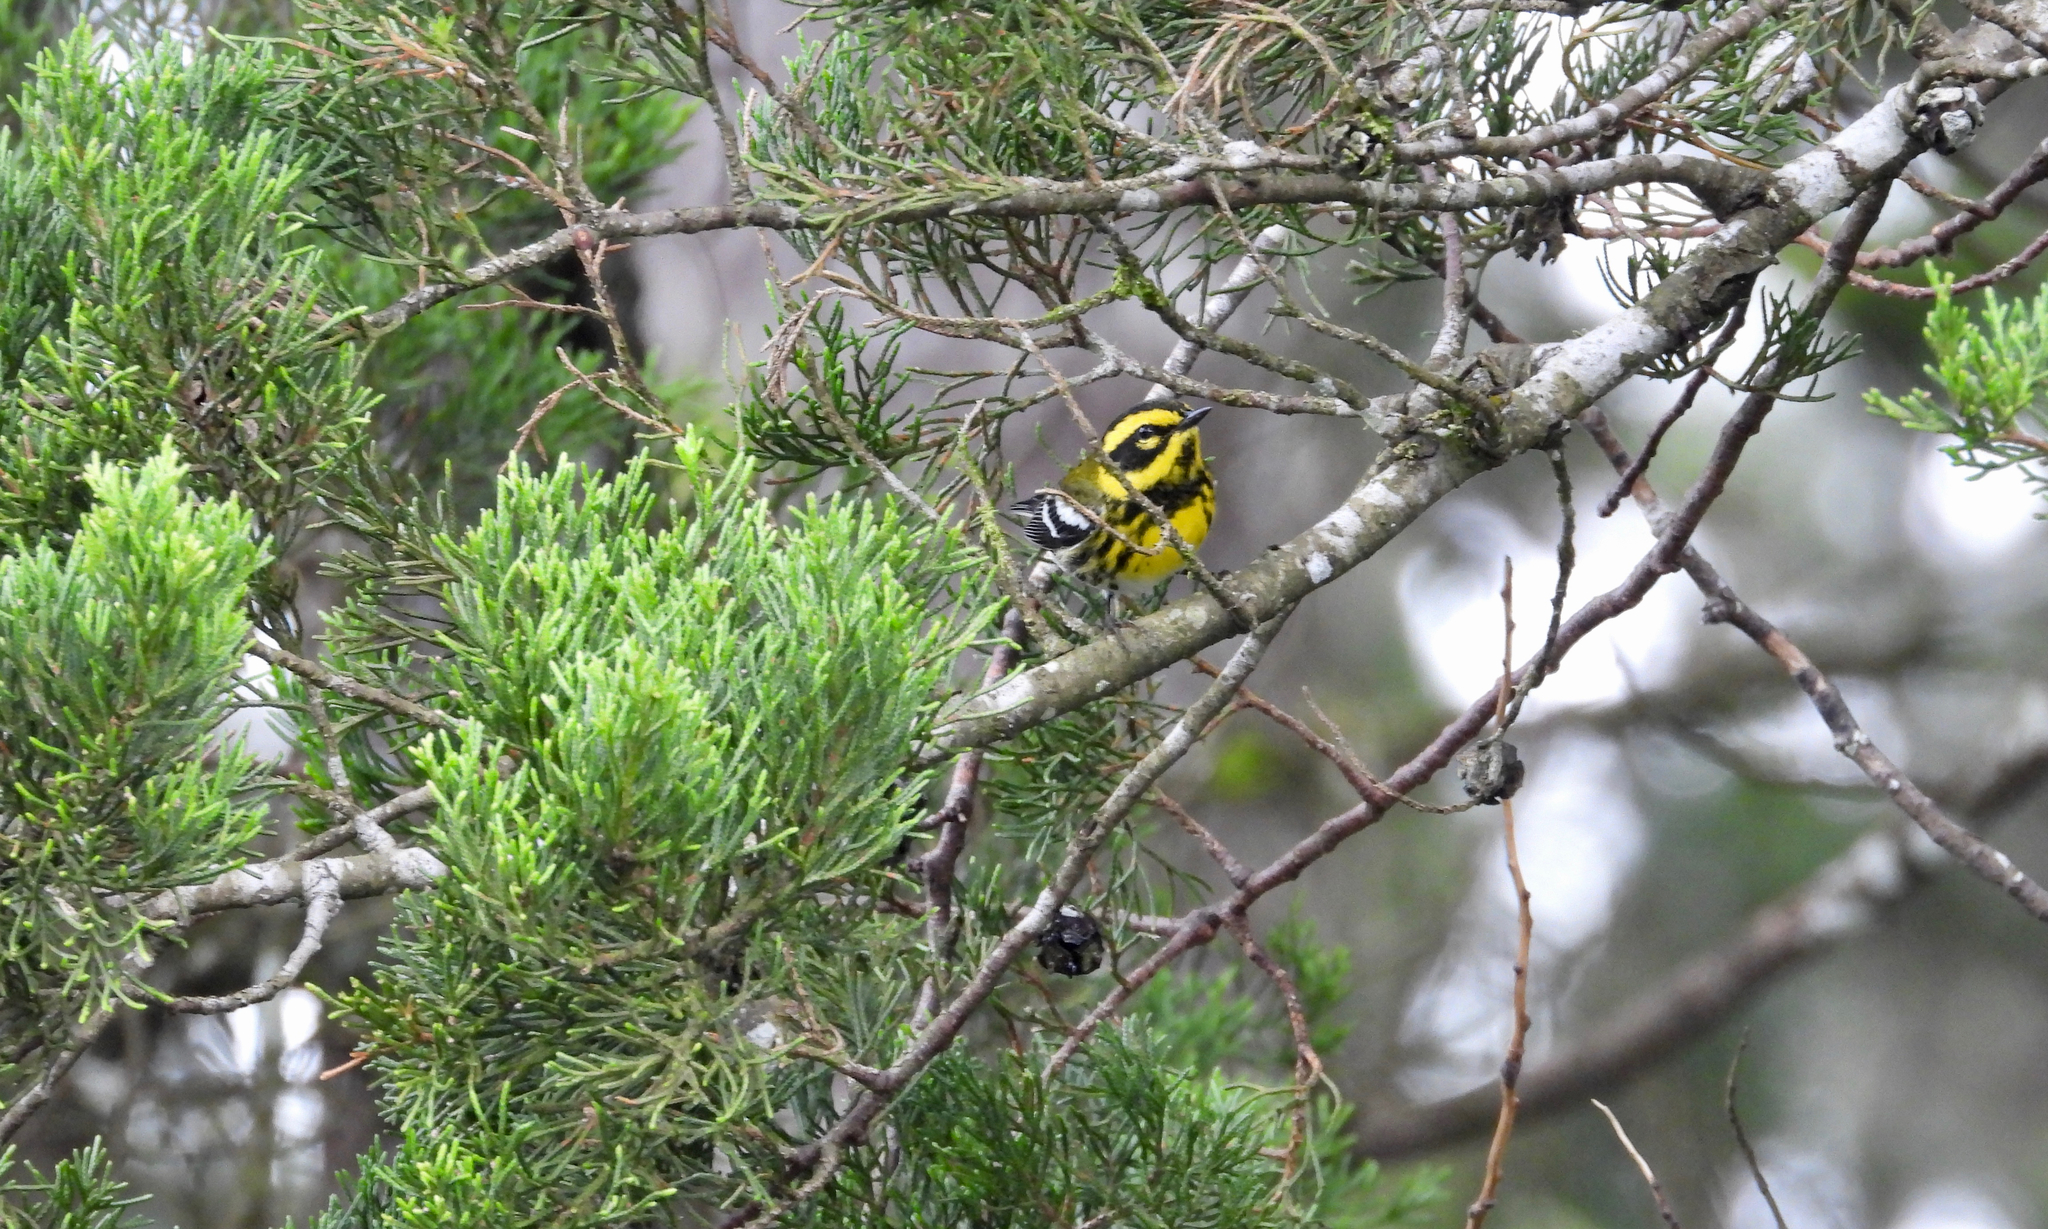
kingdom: Animalia
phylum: Chordata
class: Aves
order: Passeriformes
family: Parulidae
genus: Setophaga
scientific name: Setophaga townsendi
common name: Townsend's warbler
